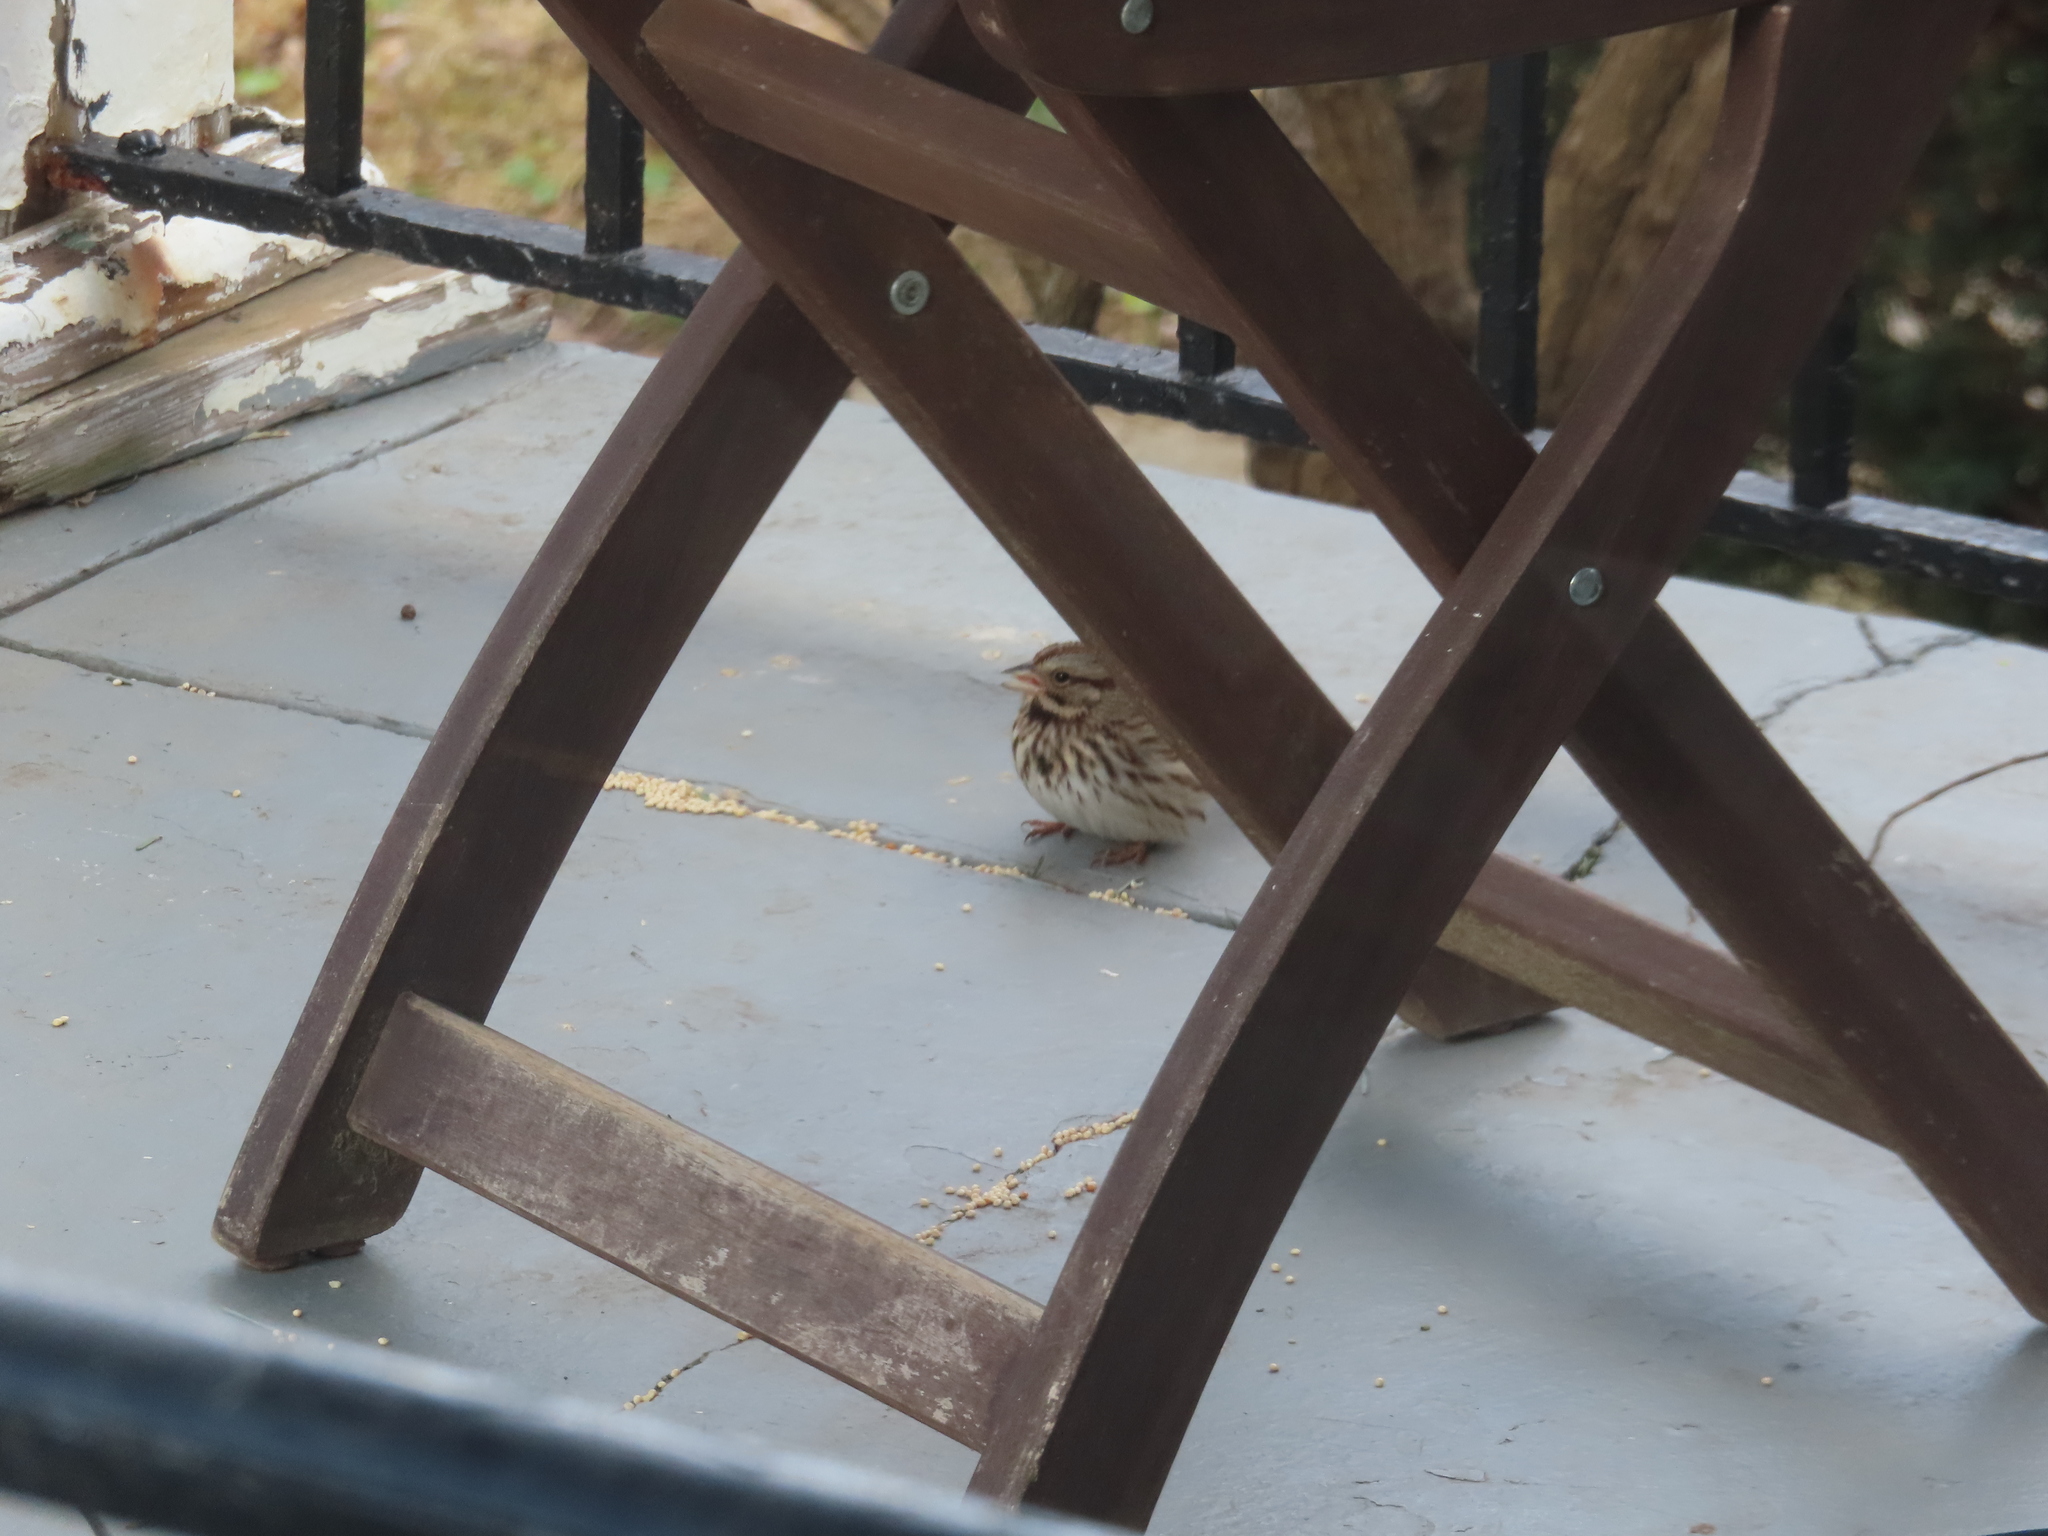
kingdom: Animalia
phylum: Chordata
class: Aves
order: Passeriformes
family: Passerellidae
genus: Melospiza
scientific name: Melospiza melodia
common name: Song sparrow
